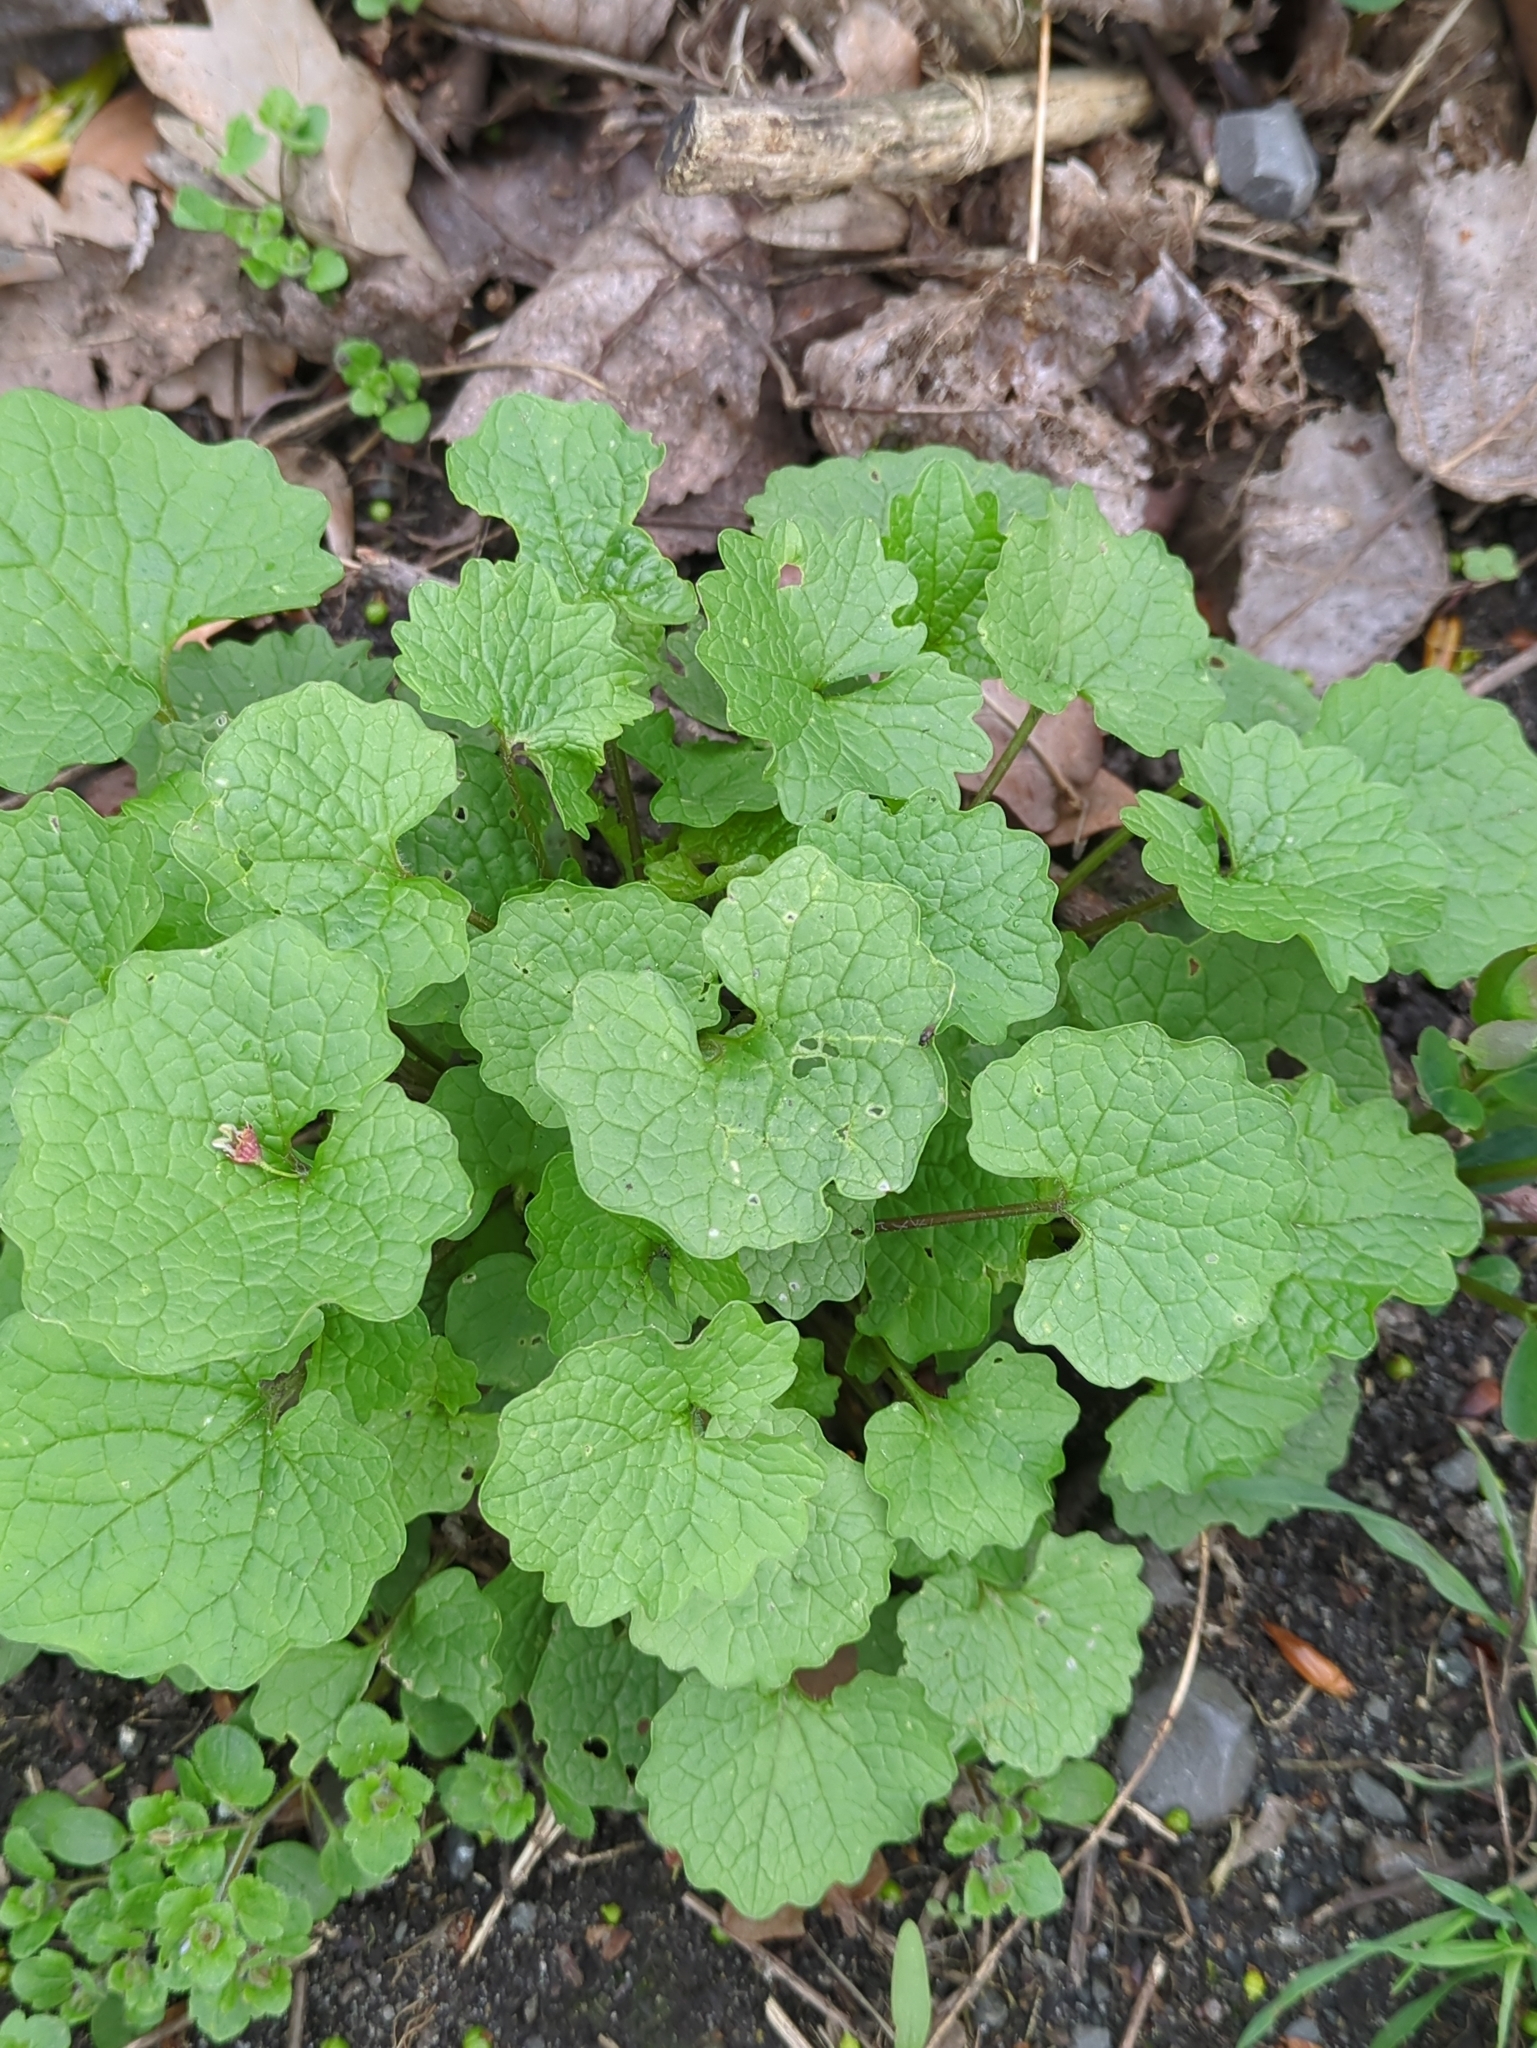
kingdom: Plantae
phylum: Tracheophyta
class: Magnoliopsida
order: Brassicales
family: Brassicaceae
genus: Alliaria
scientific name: Alliaria petiolata
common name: Garlic mustard
